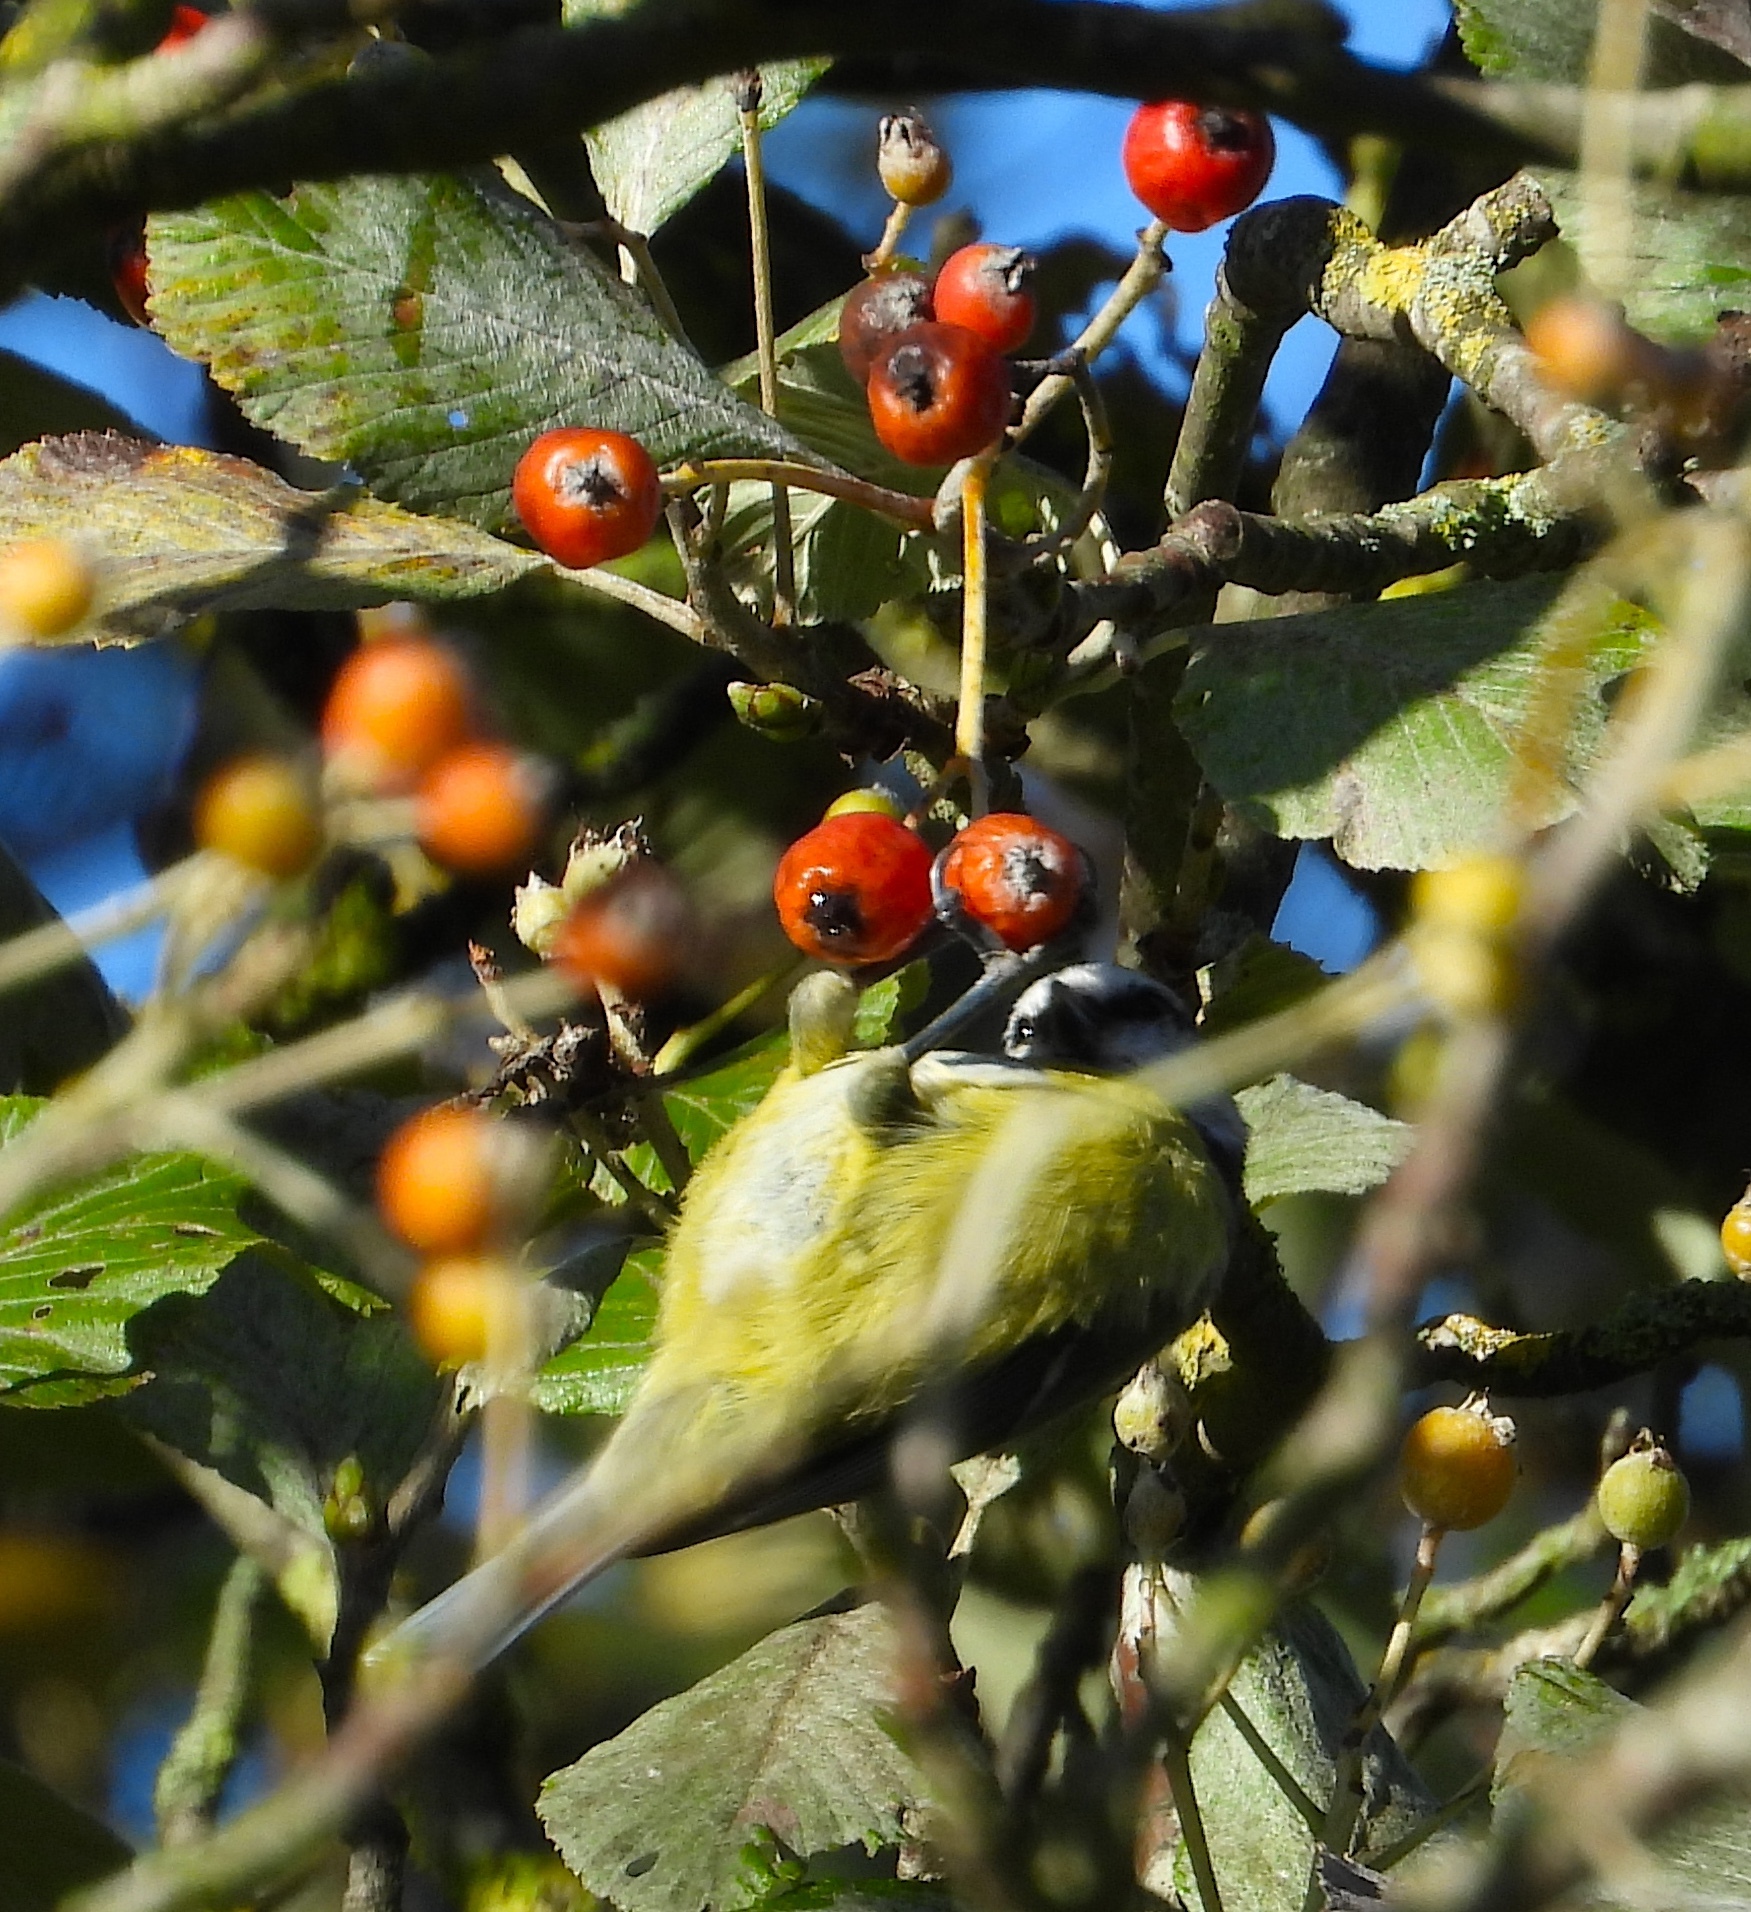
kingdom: Animalia
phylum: Chordata
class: Aves
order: Passeriformes
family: Paridae
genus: Cyanistes
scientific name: Cyanistes caeruleus
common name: Eurasian blue tit
